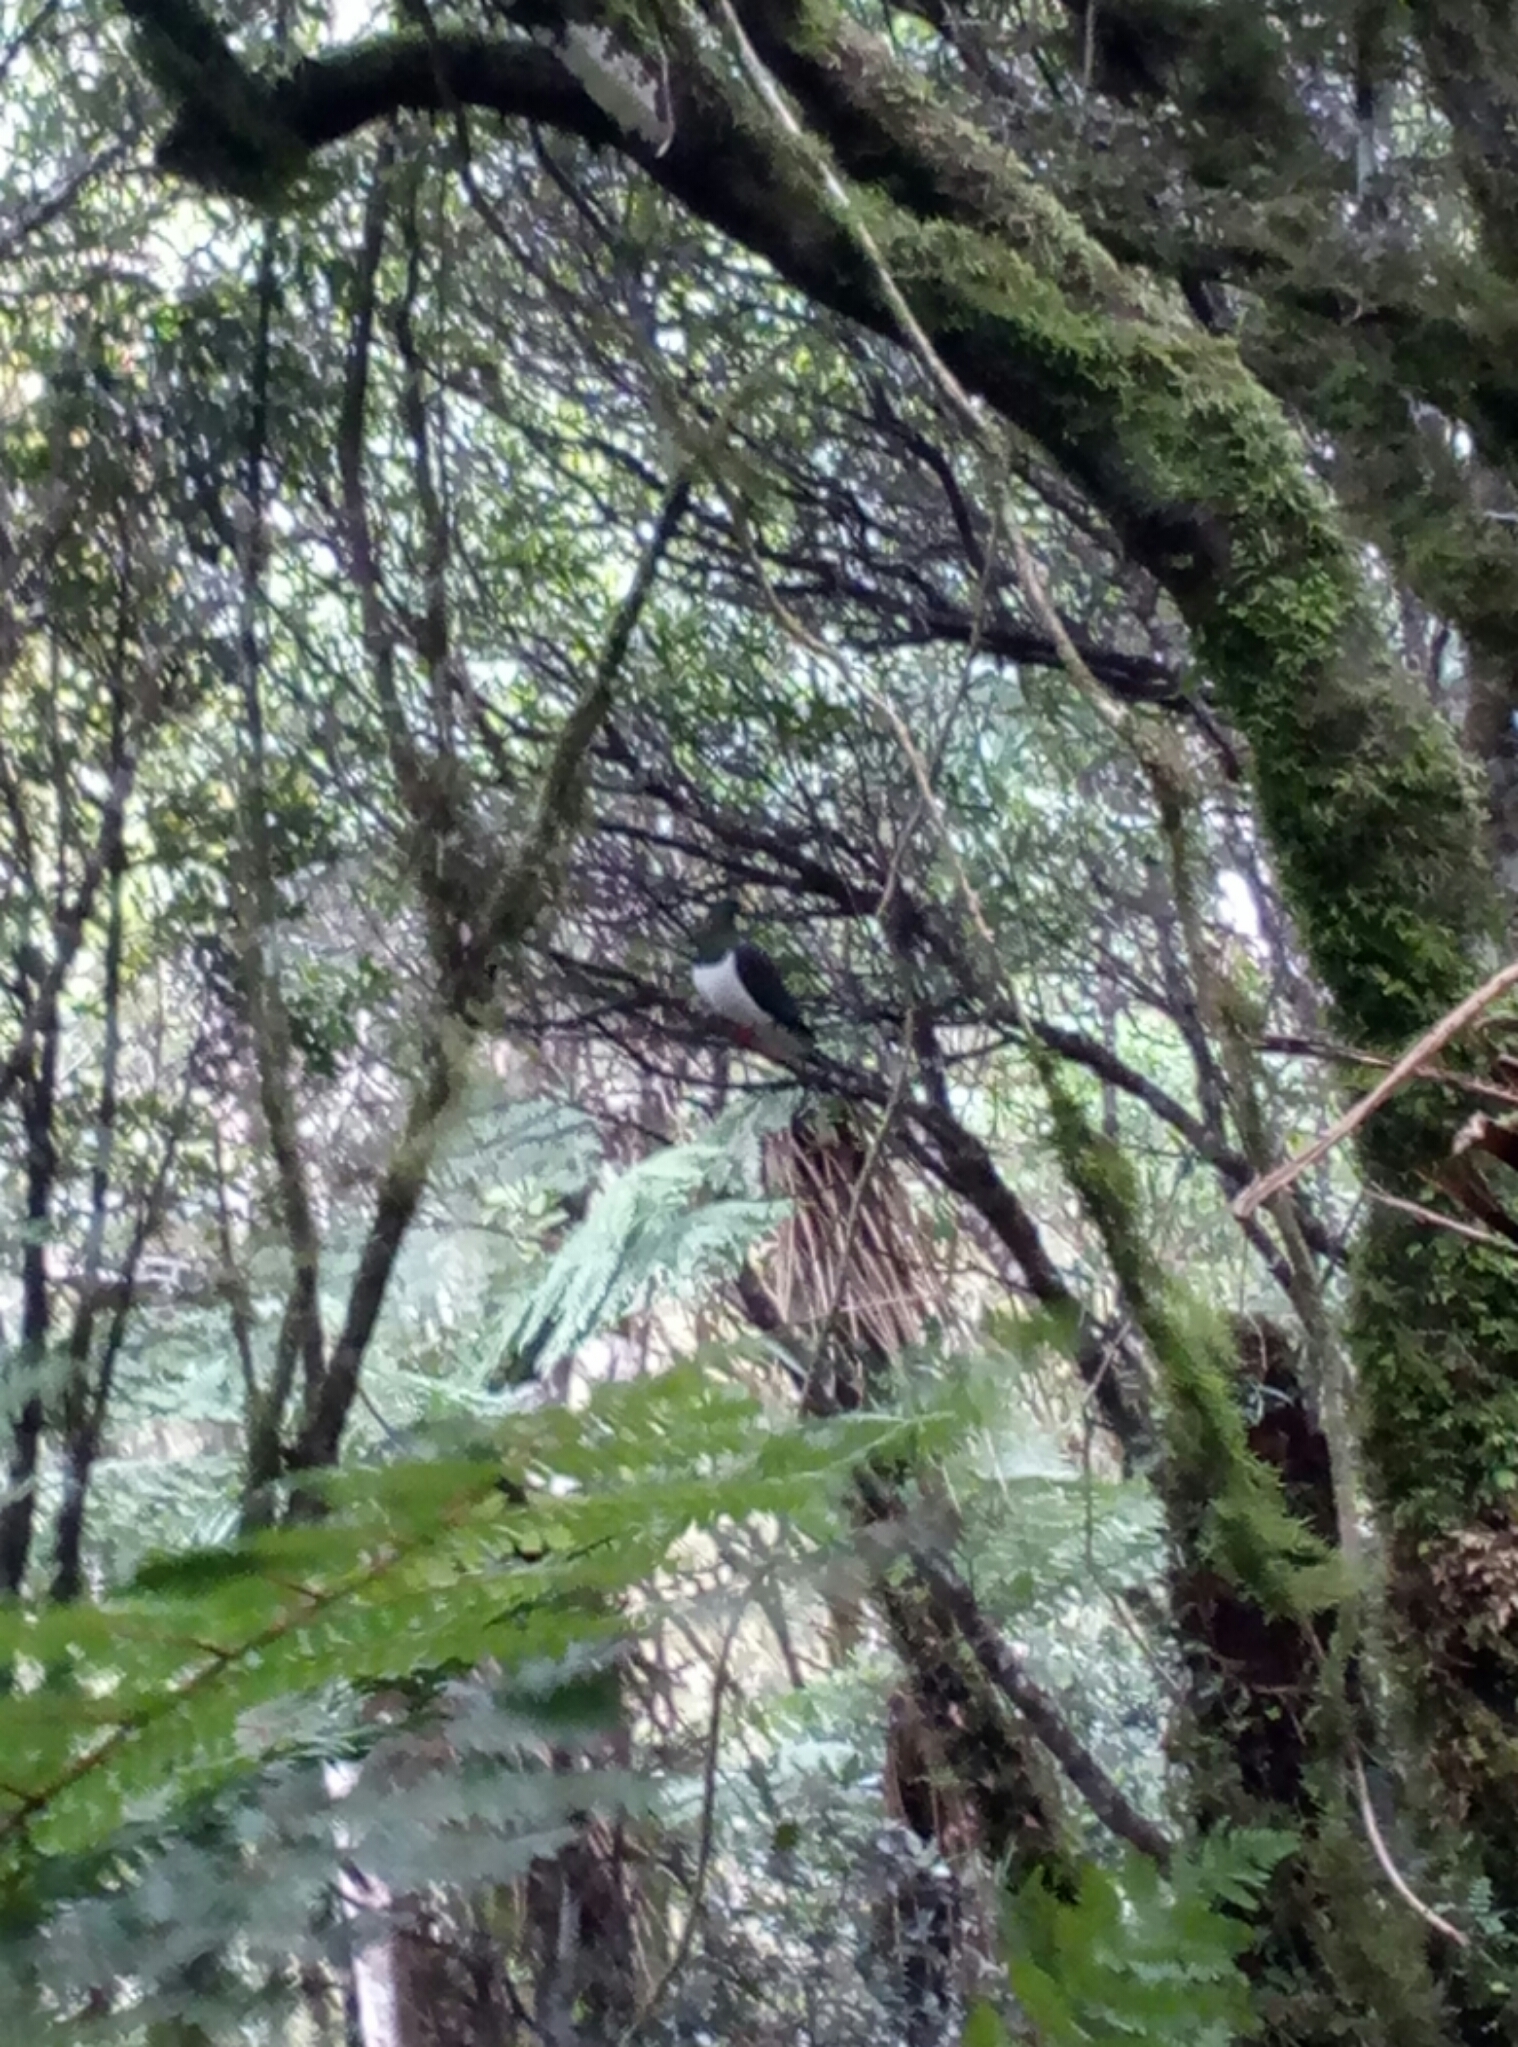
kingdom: Animalia
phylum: Chordata
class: Aves
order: Columbiformes
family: Columbidae
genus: Hemiphaga
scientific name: Hemiphaga novaeseelandiae
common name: New zealand pigeon
